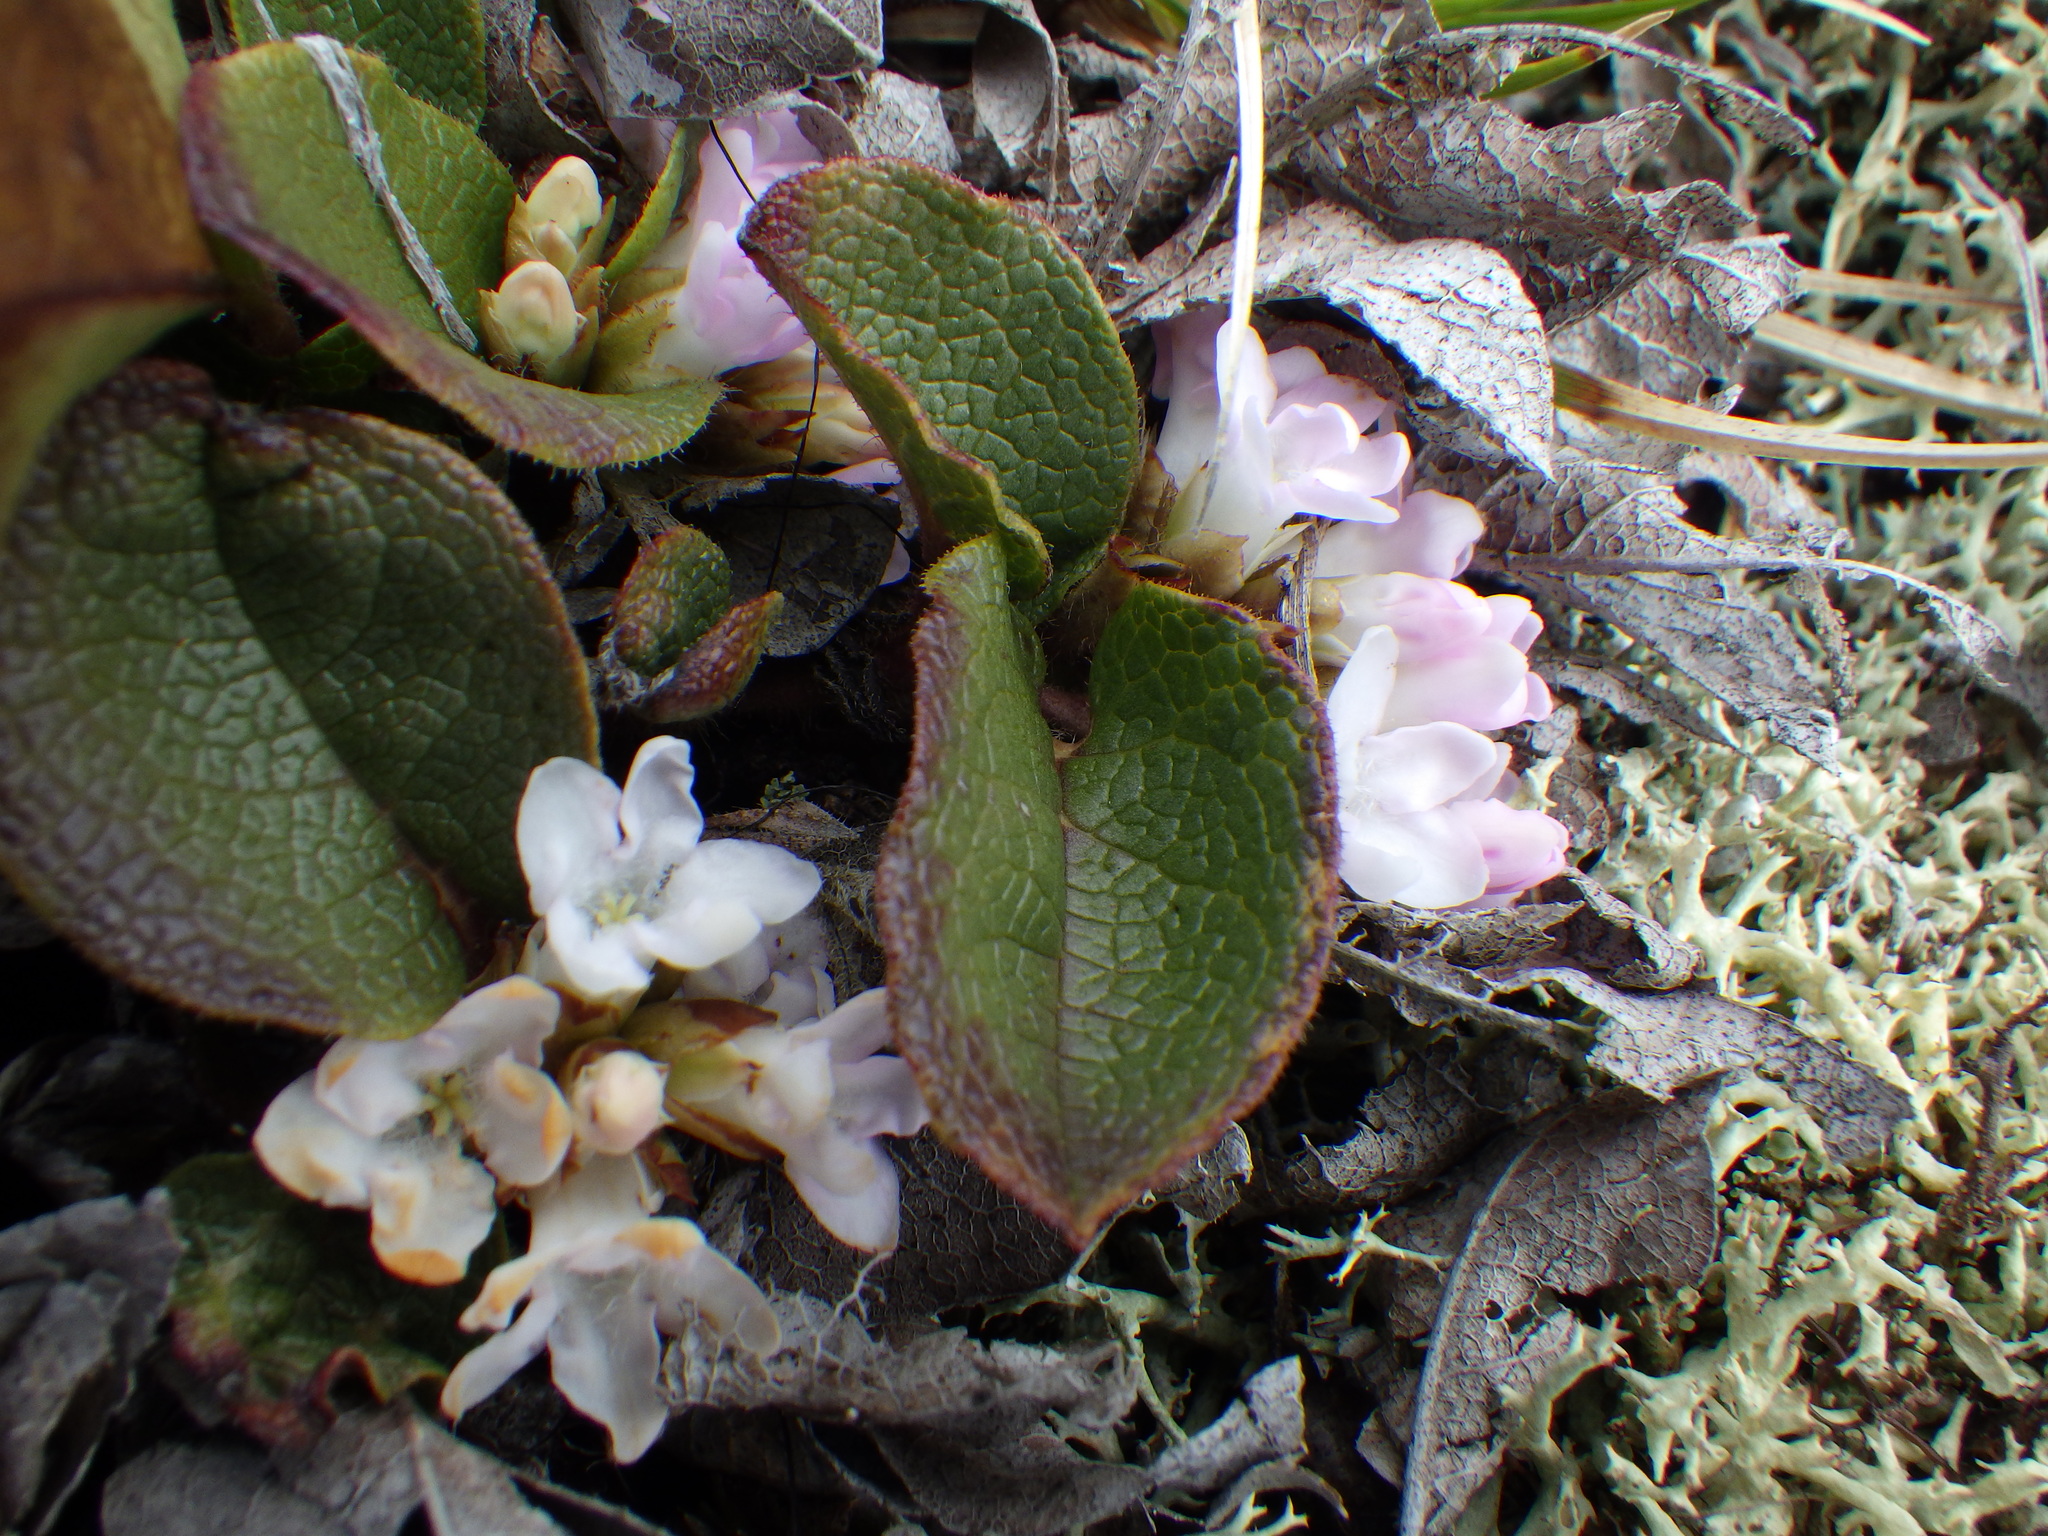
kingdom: Plantae
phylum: Tracheophyta
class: Magnoliopsida
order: Ericales
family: Ericaceae
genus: Epigaea
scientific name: Epigaea repens
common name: Gravelroot
